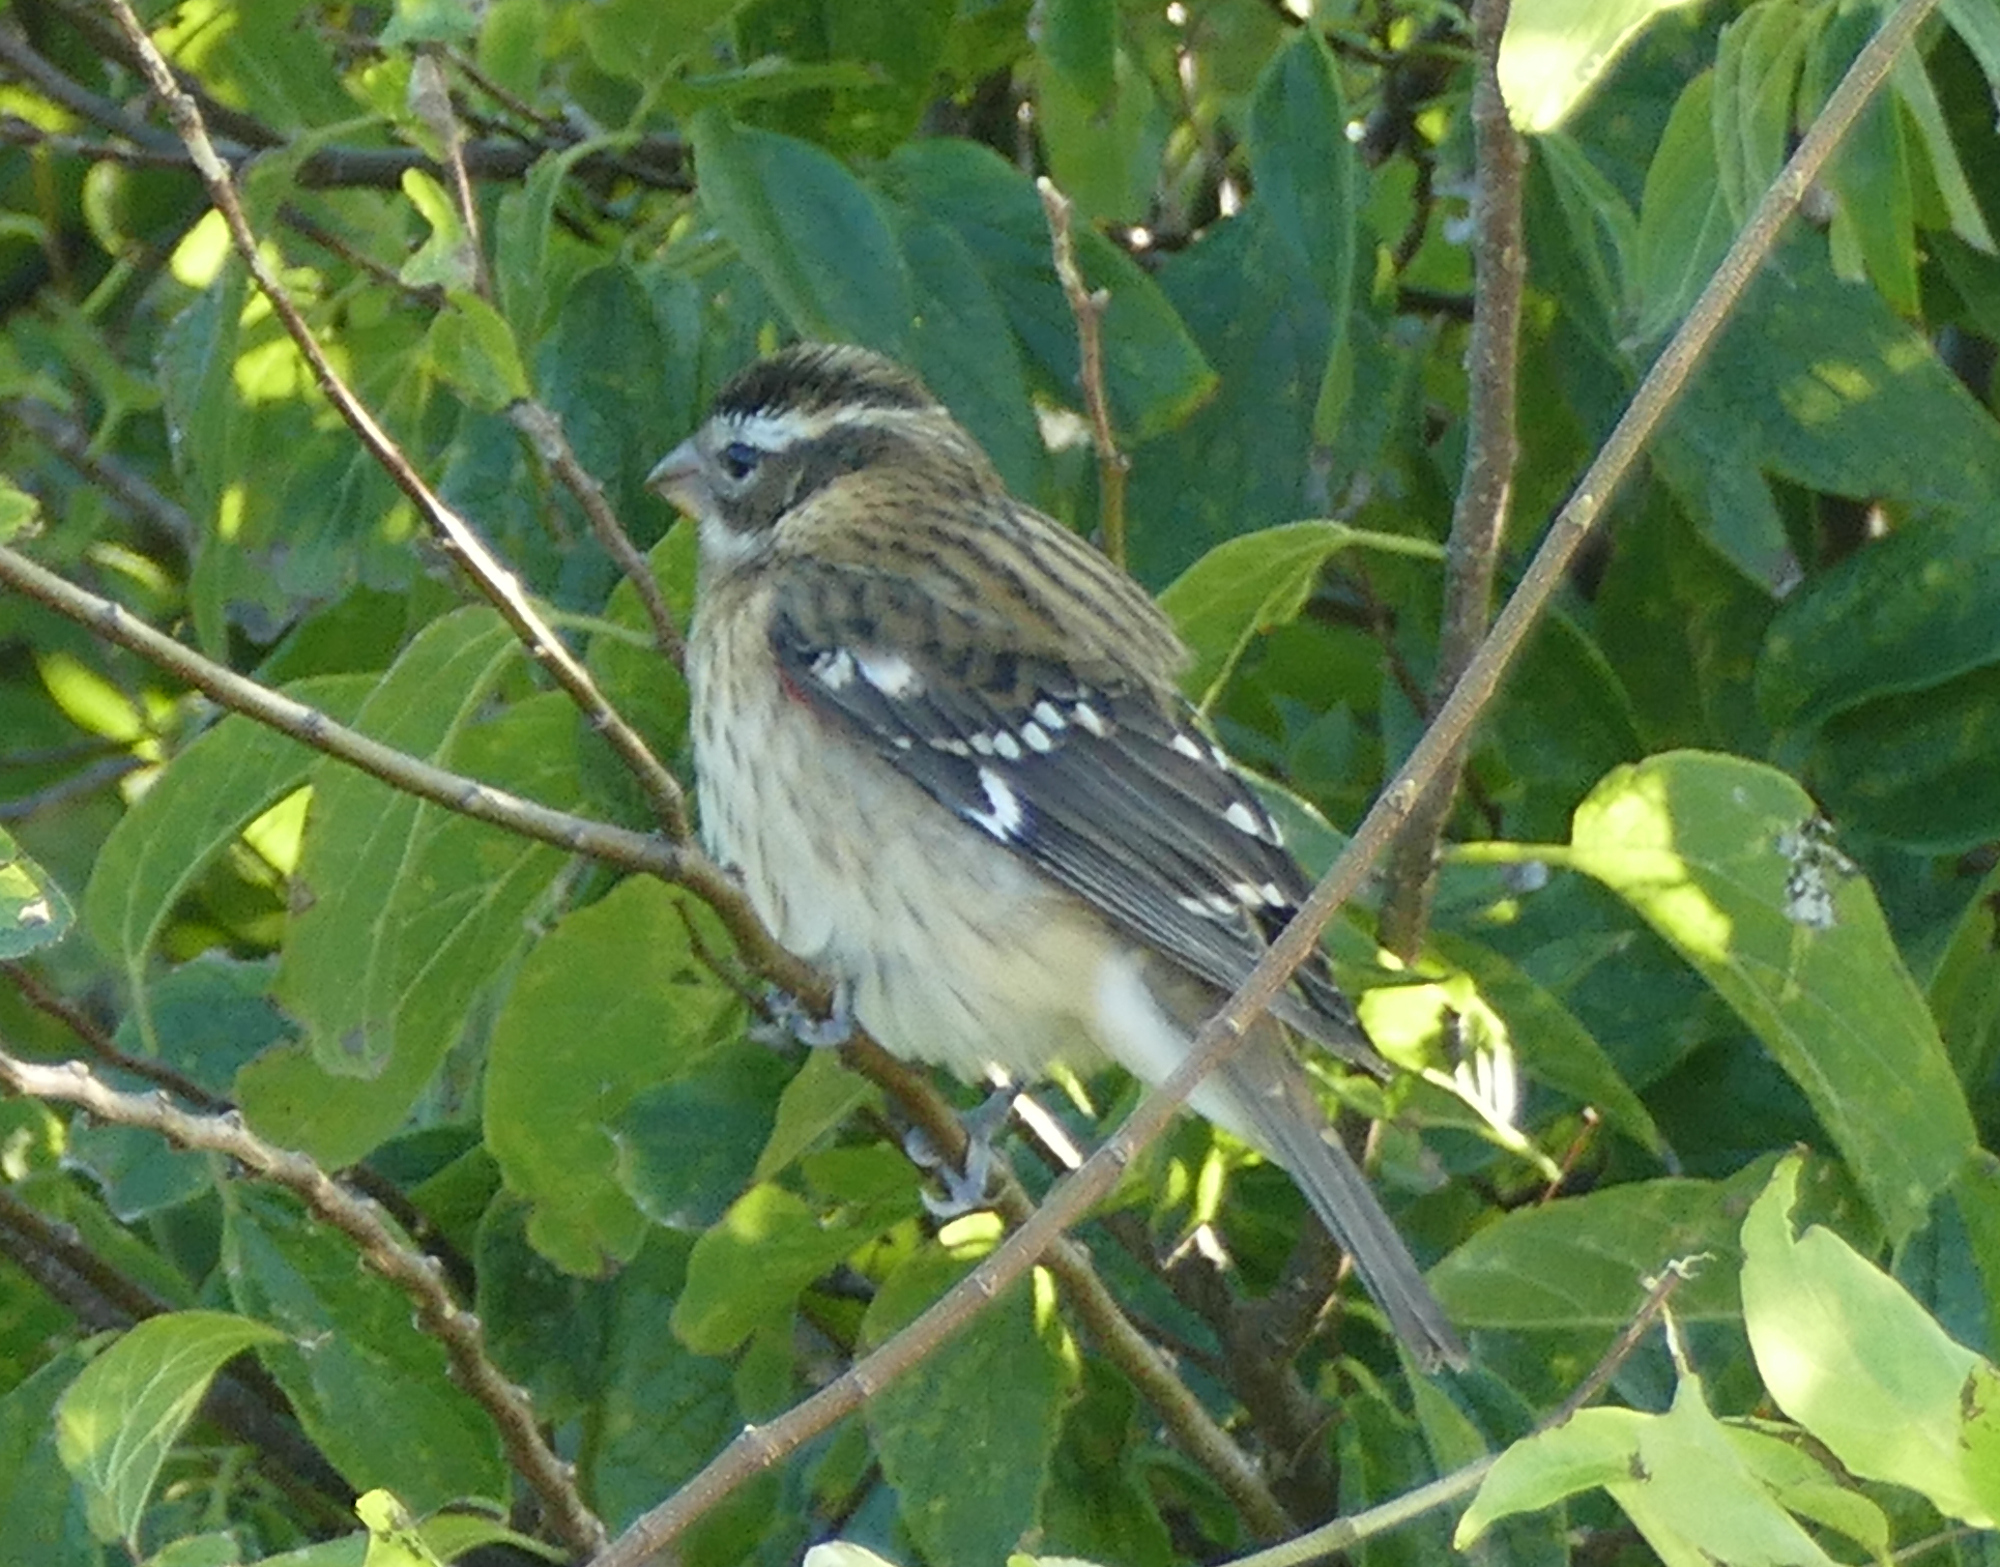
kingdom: Animalia
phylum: Chordata
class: Aves
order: Passeriformes
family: Cardinalidae
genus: Pheucticus
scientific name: Pheucticus ludovicianus
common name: Rose-breasted grosbeak
